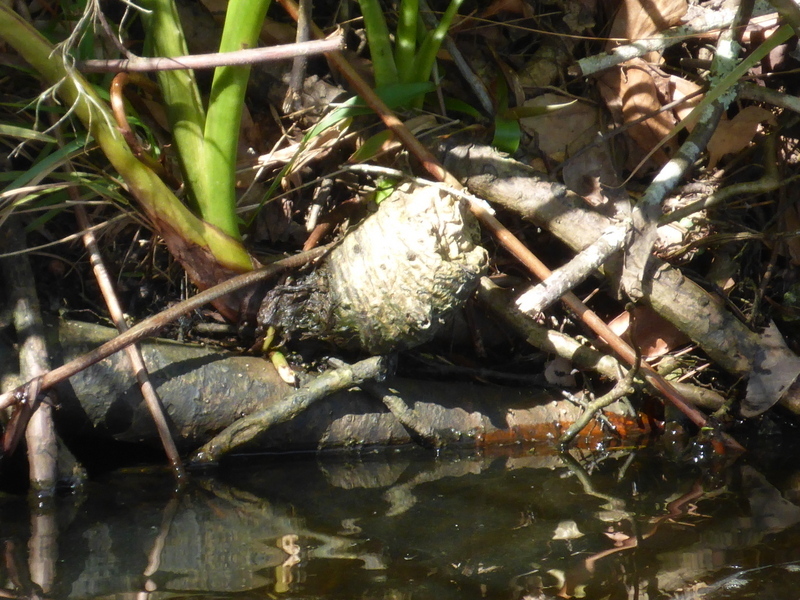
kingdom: Plantae
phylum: Tracheophyta
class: Liliopsida
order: Alismatales
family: Araceae
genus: Colocasia
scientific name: Colocasia esculenta
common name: Taro
